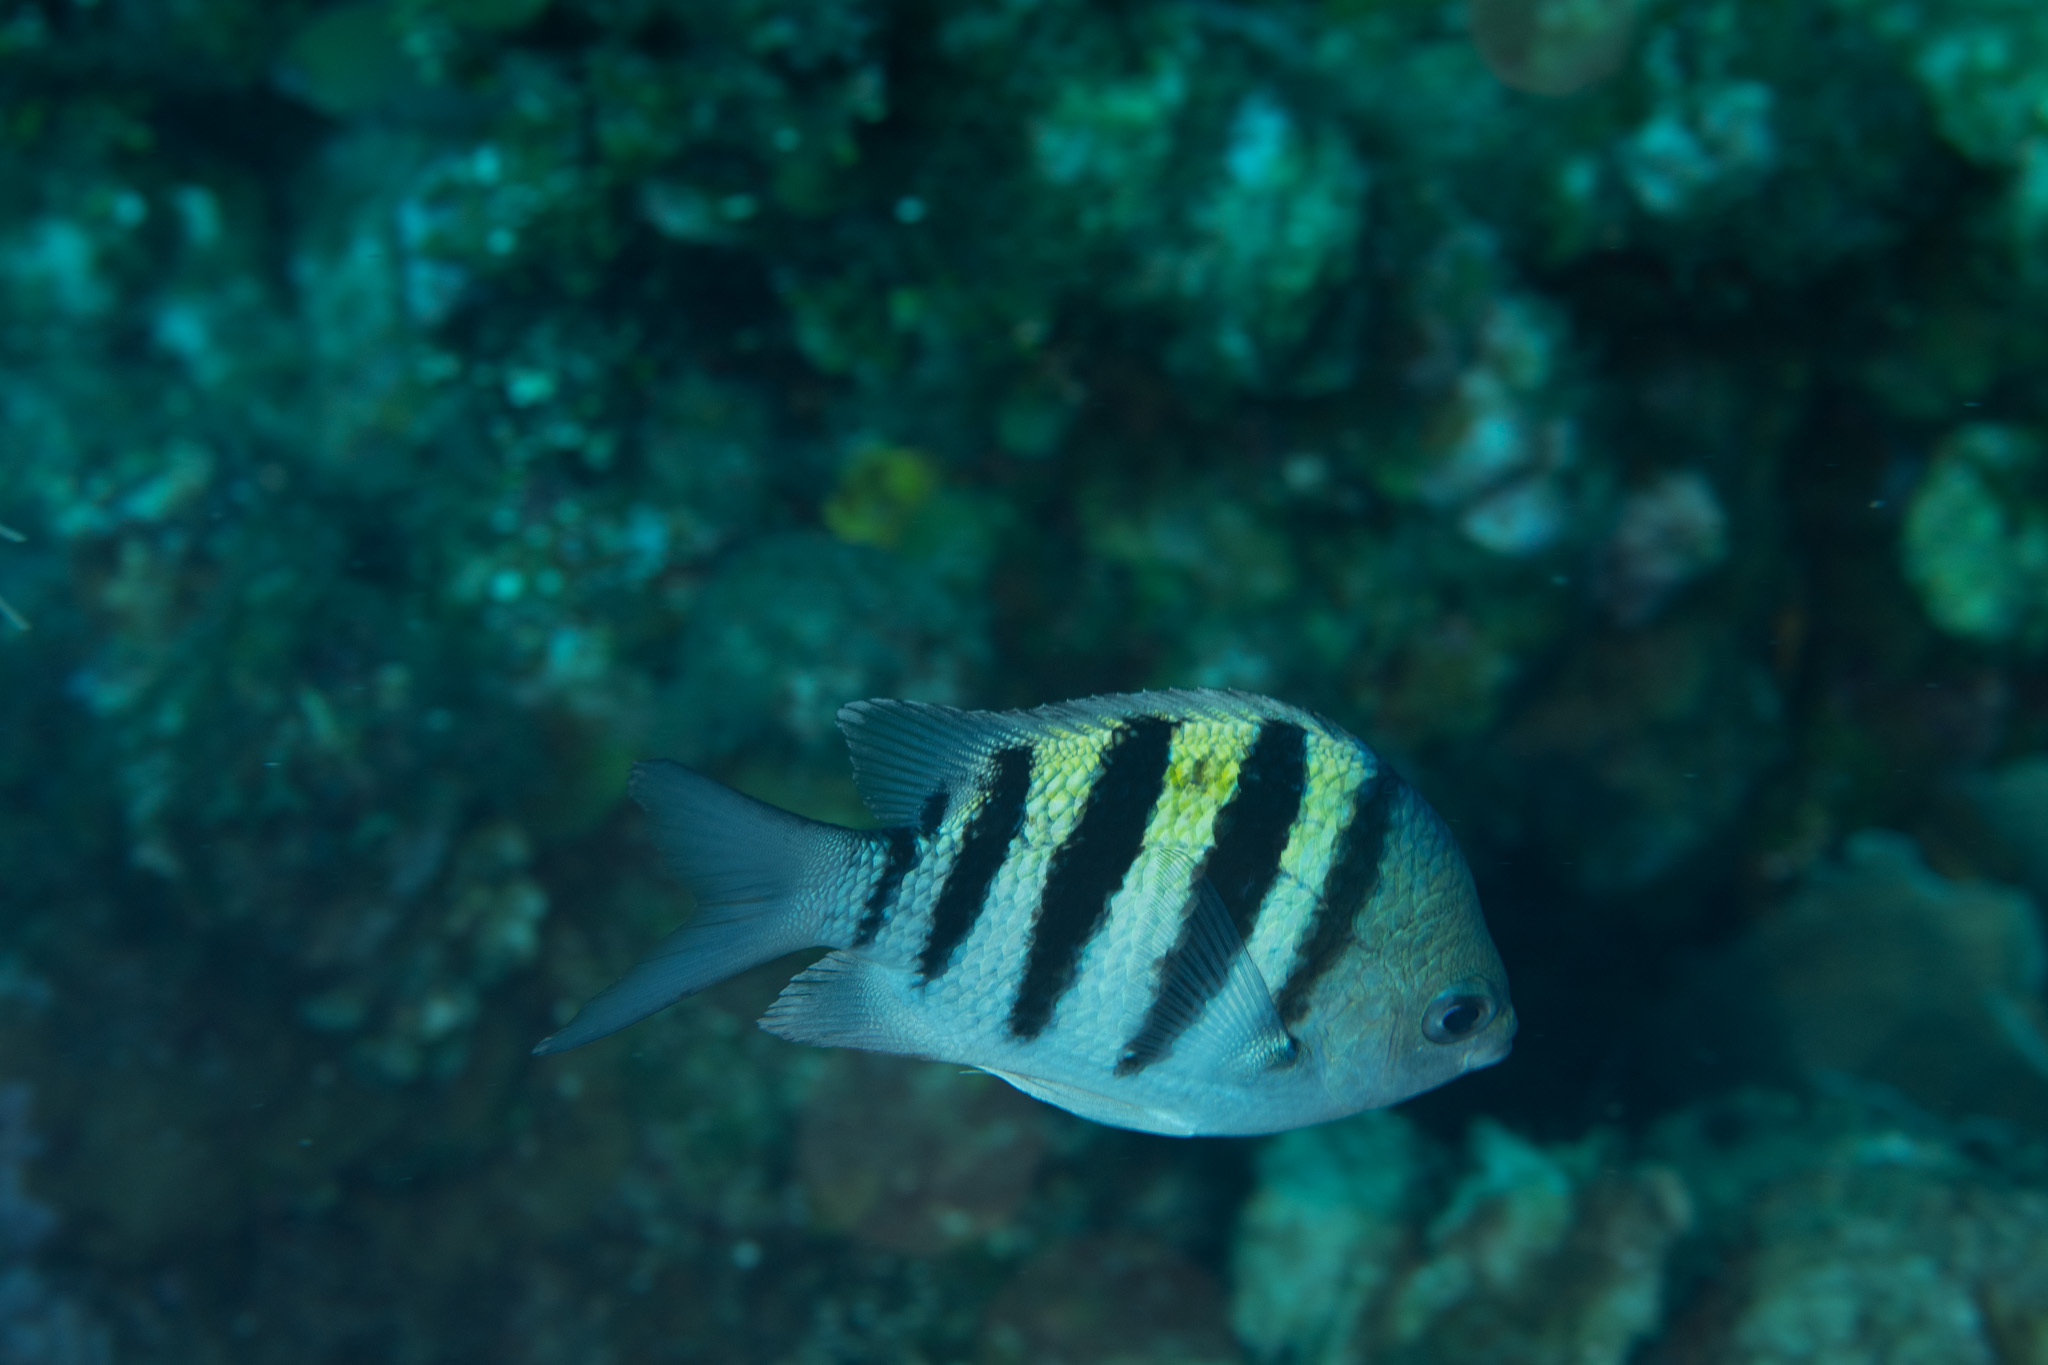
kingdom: Animalia
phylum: Chordata
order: Perciformes
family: Pomacentridae
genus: Abudefduf
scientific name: Abudefduf saxatilis
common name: Sergeant major
